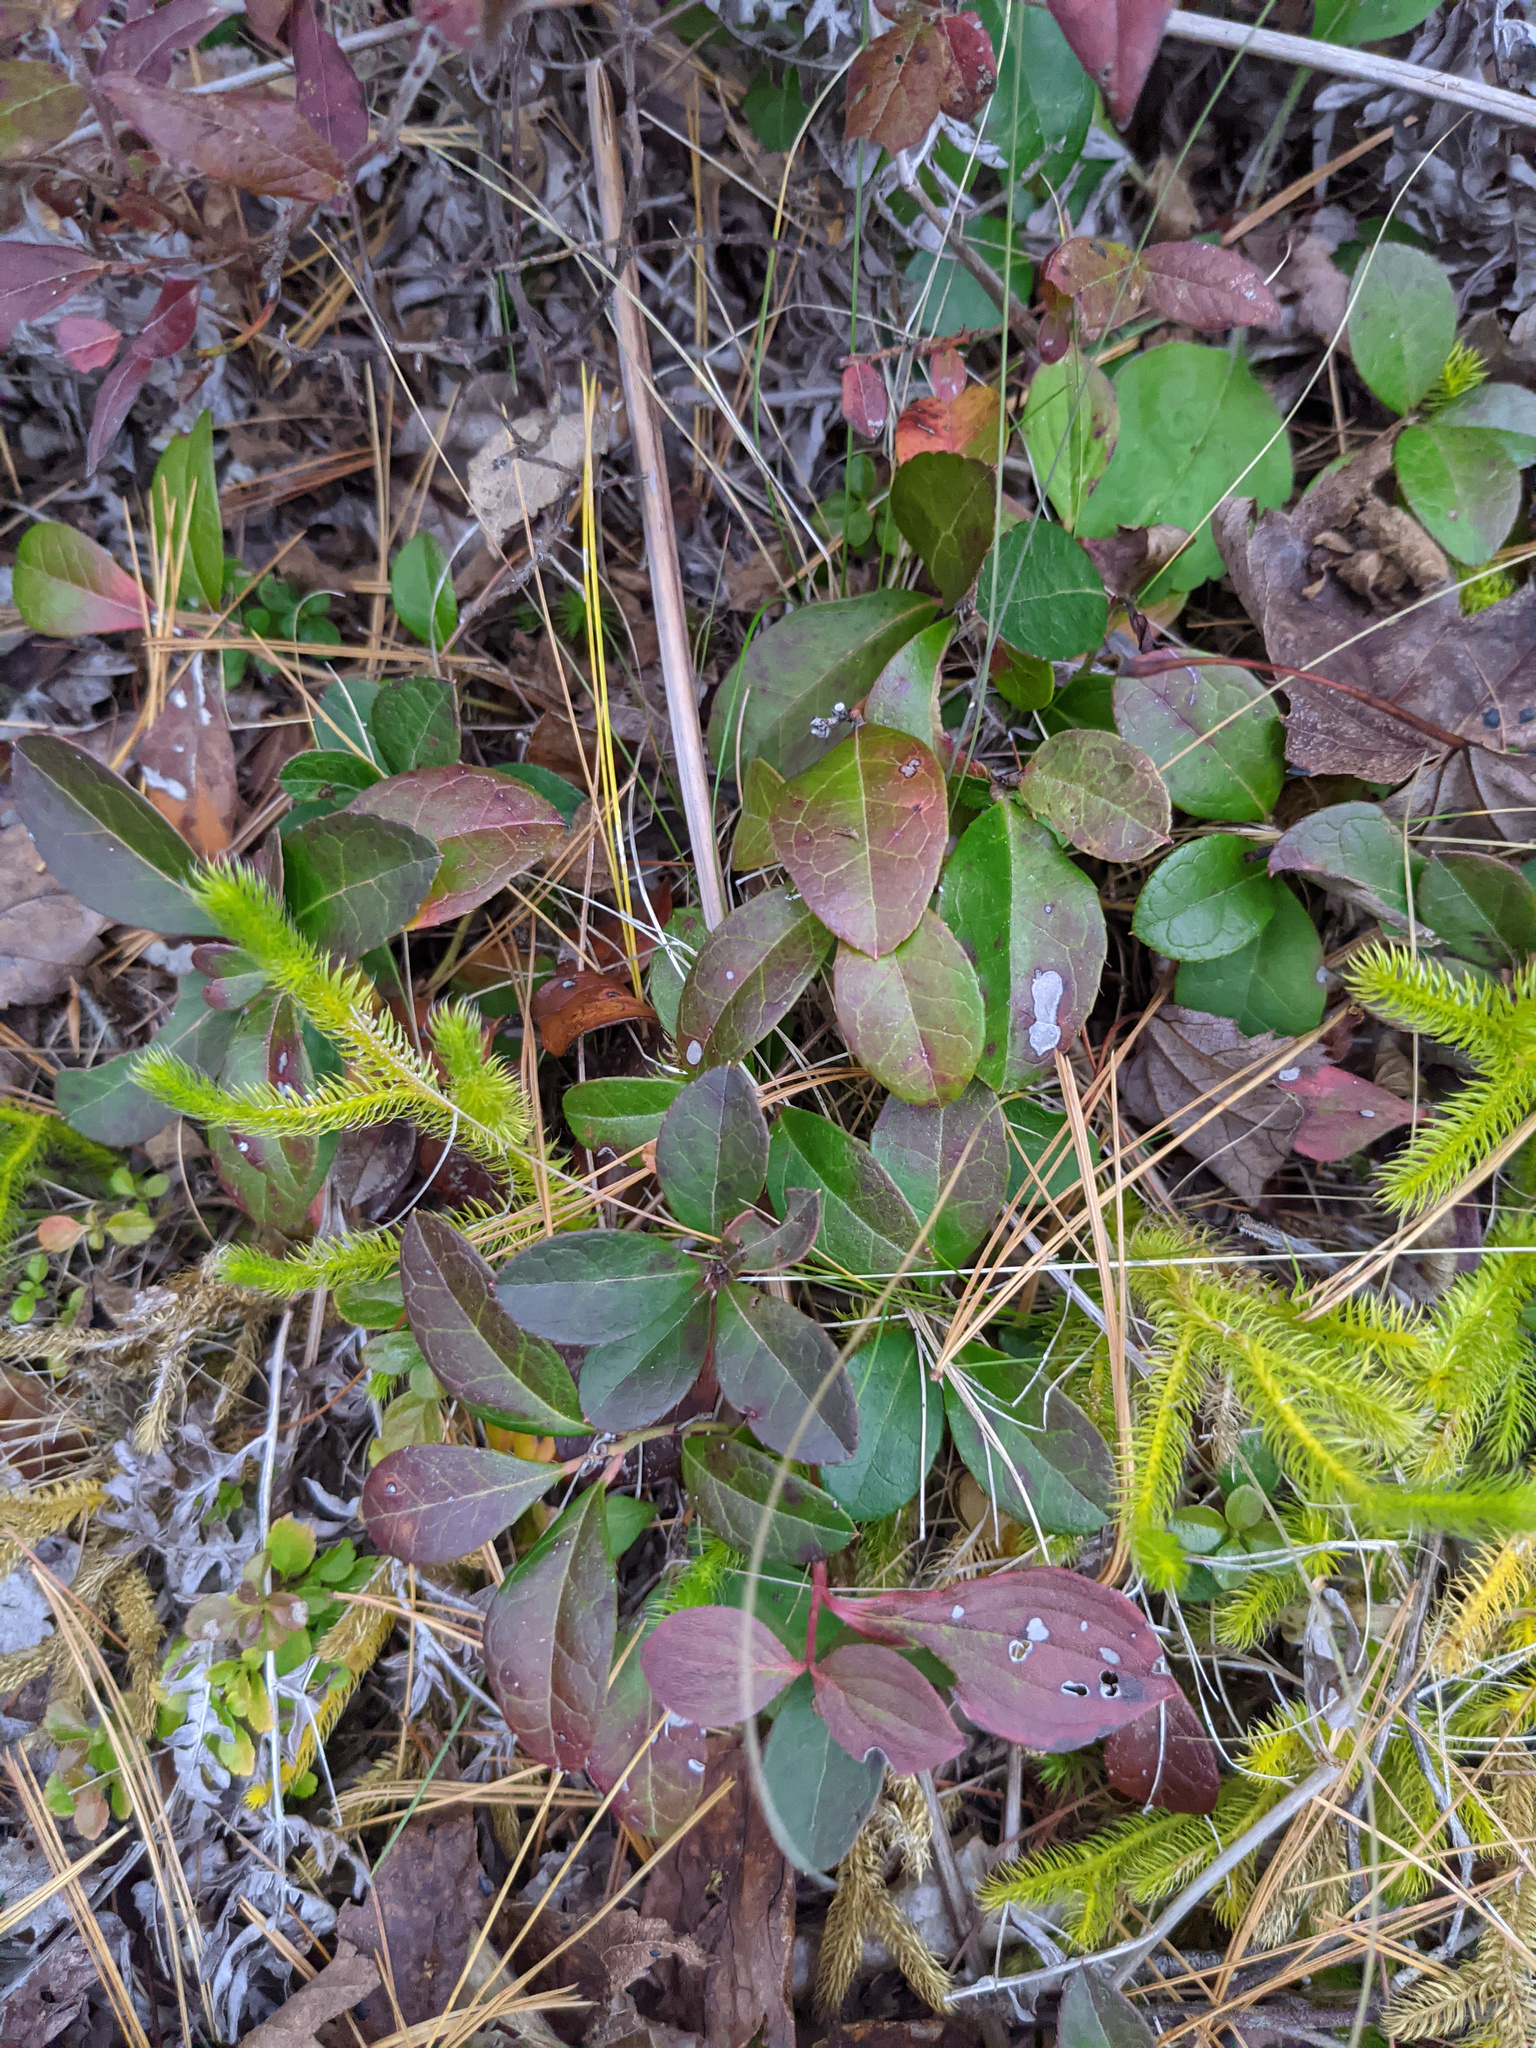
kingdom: Plantae
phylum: Tracheophyta
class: Magnoliopsida
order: Ericales
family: Ericaceae
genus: Gaultheria
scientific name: Gaultheria procumbens
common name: Checkerberry
